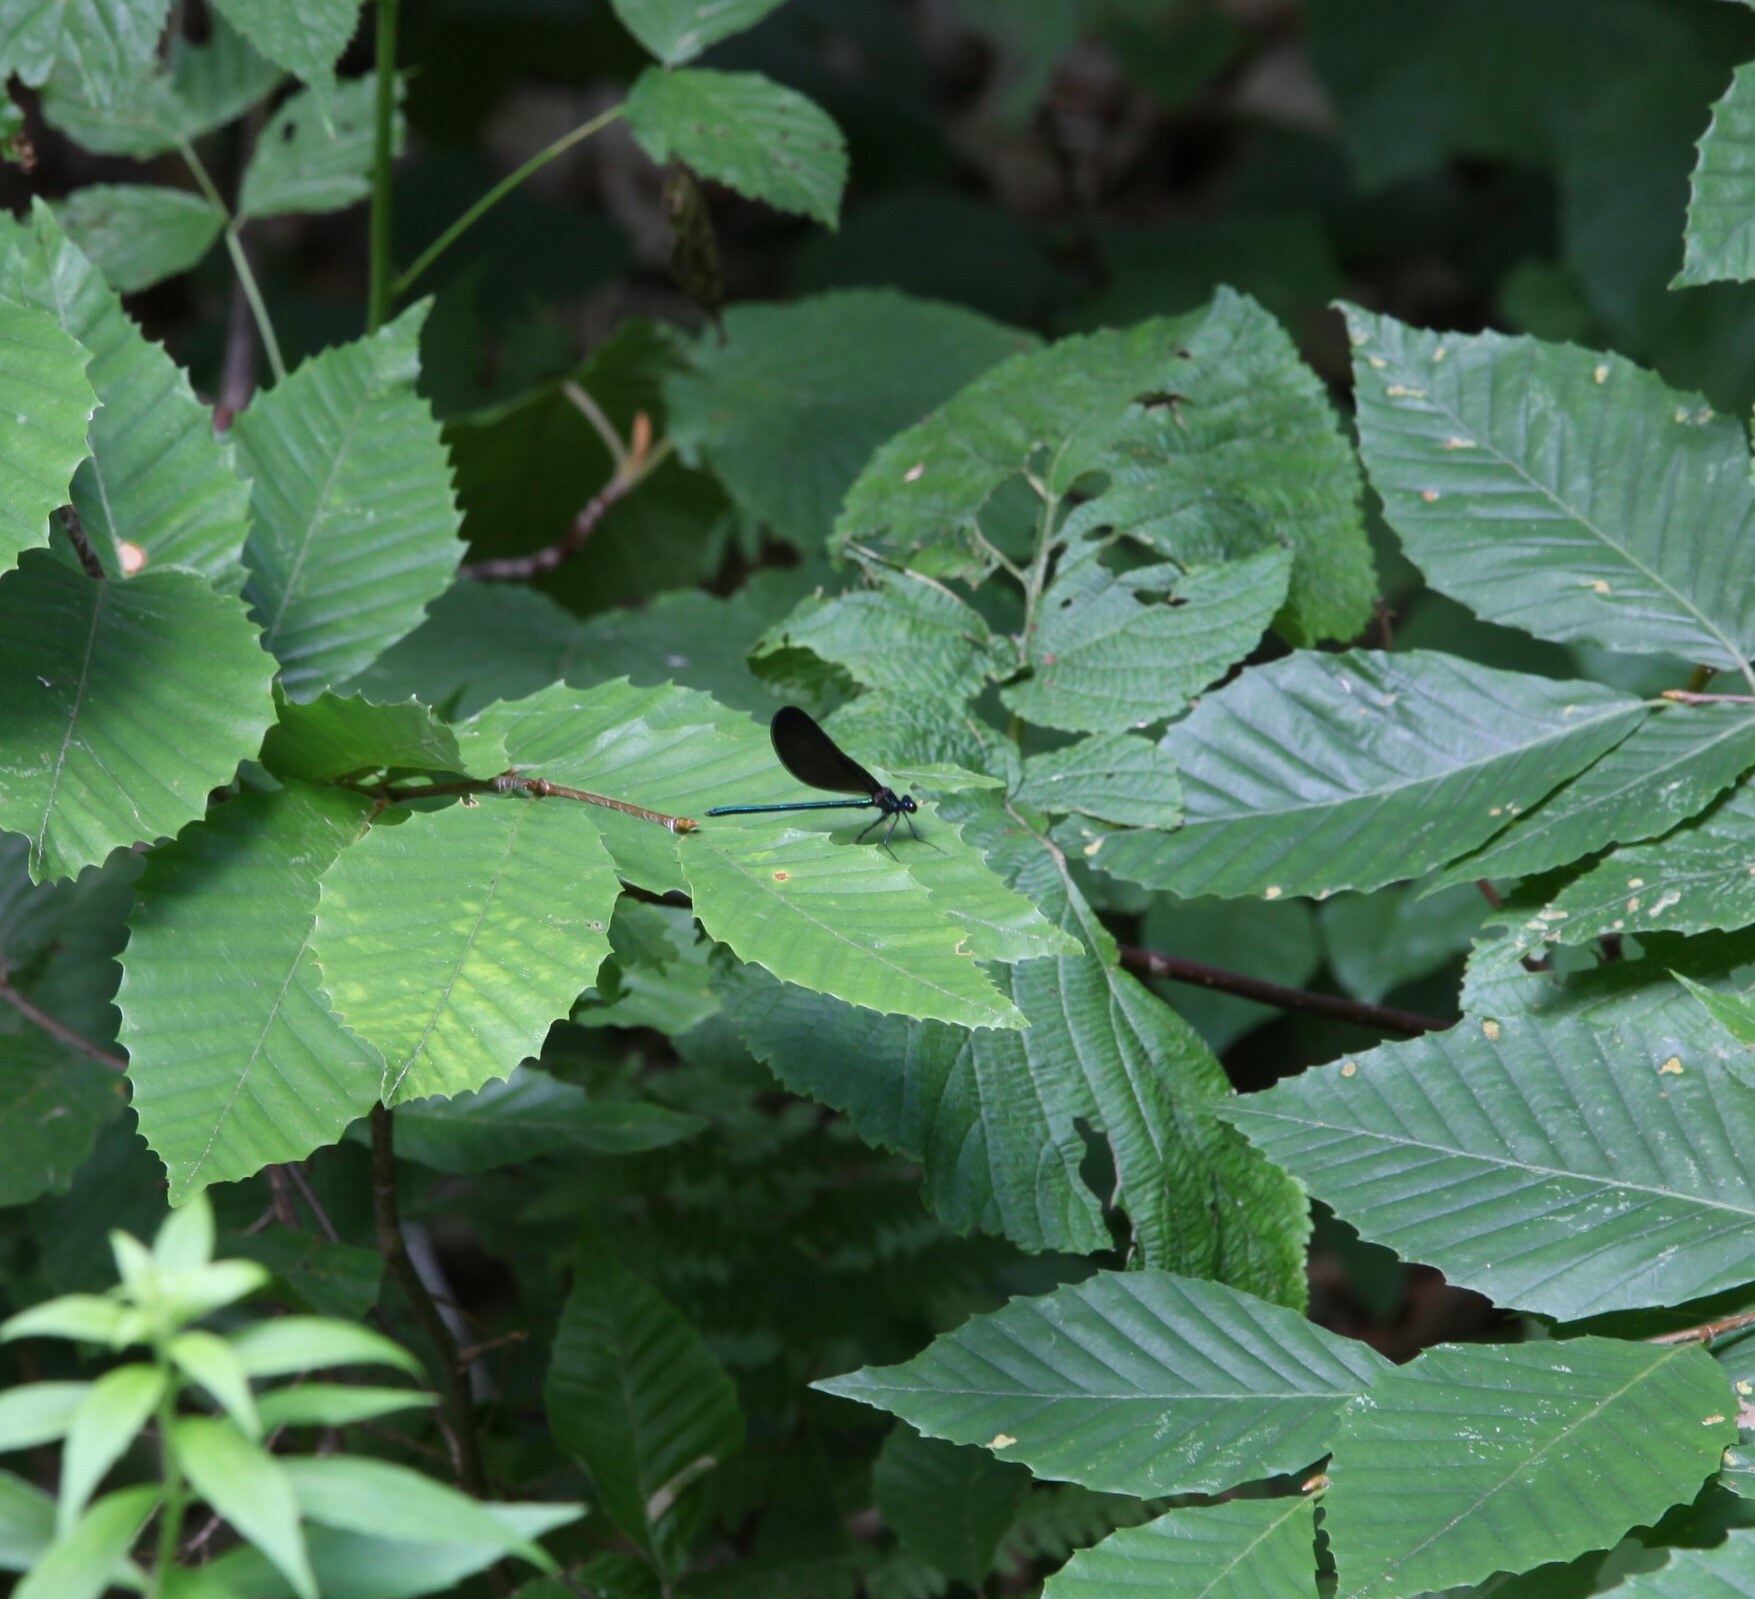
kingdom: Animalia
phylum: Arthropoda
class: Insecta
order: Odonata
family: Calopterygidae
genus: Calopteryx
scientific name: Calopteryx maculata
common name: Ebony jewelwing
